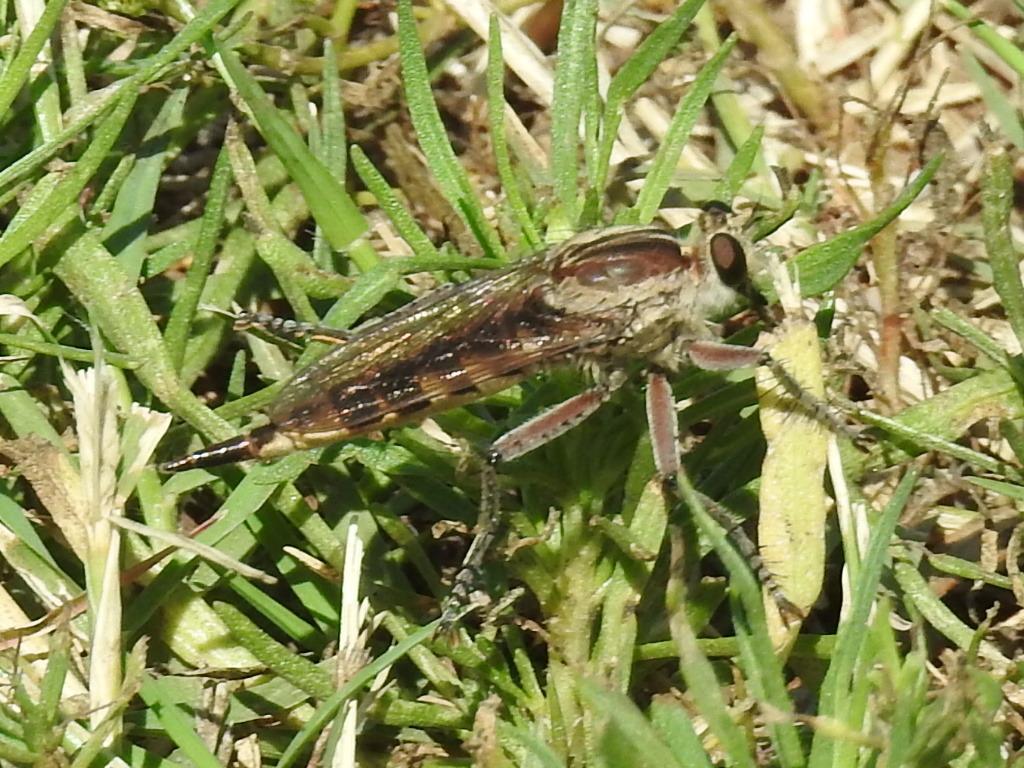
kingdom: Animalia
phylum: Arthropoda
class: Insecta
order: Diptera
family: Asilidae
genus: Triorla
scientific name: Triorla interrupta
